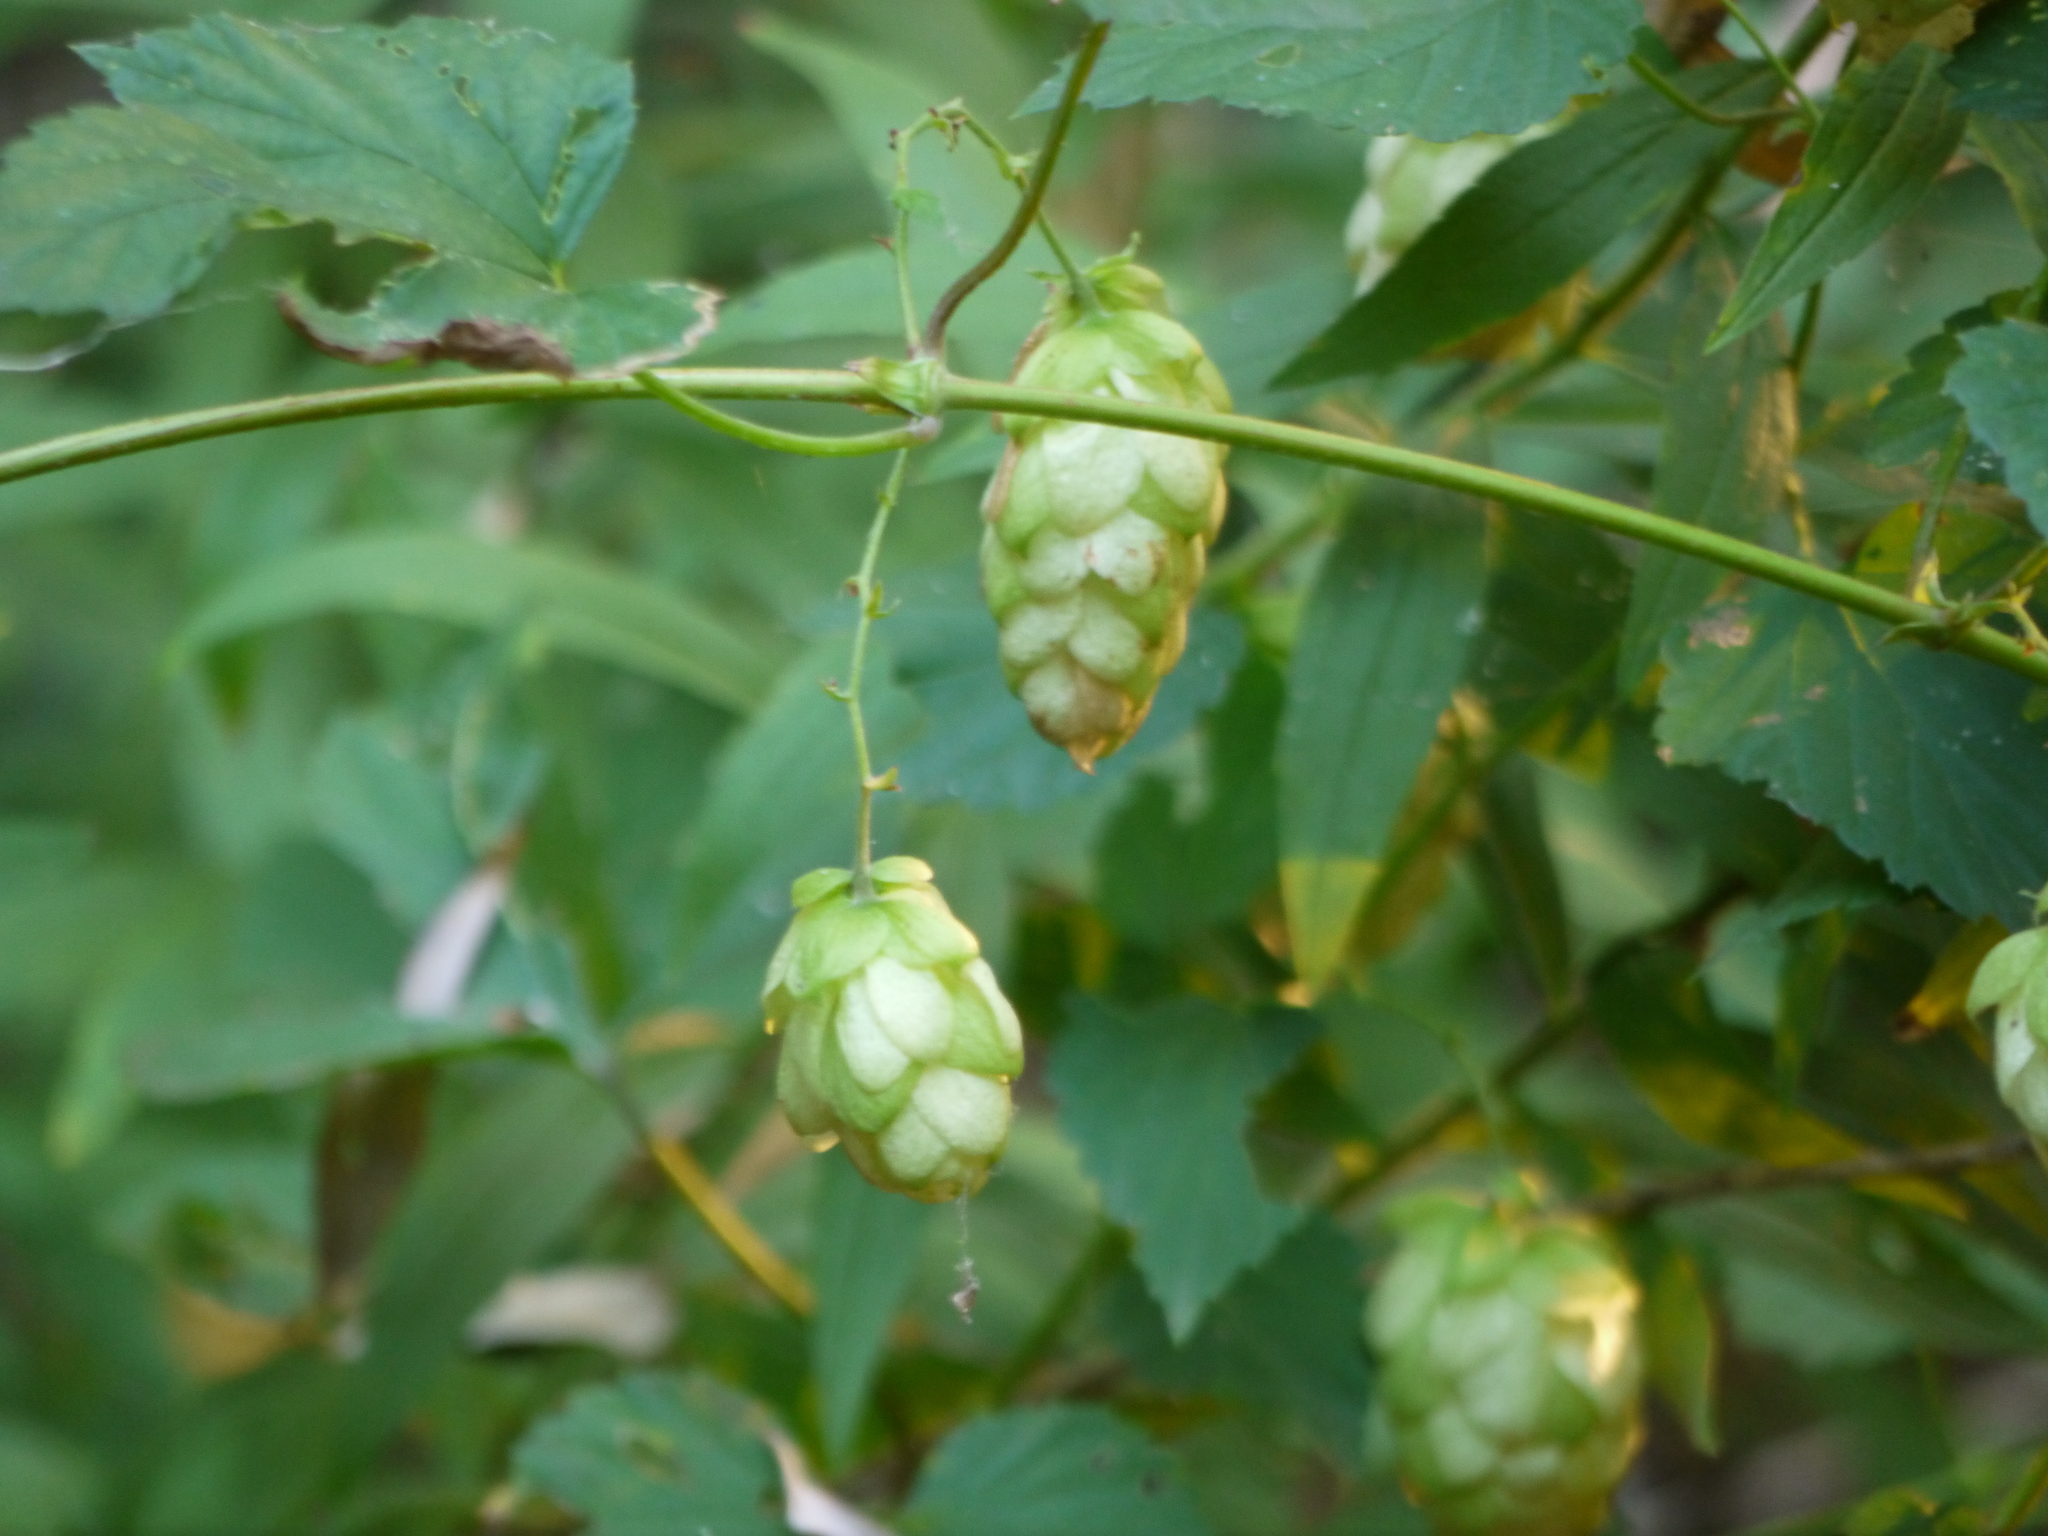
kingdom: Plantae
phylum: Tracheophyta
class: Magnoliopsida
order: Rosales
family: Cannabaceae
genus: Humulus
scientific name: Humulus lupulus
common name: Hop
